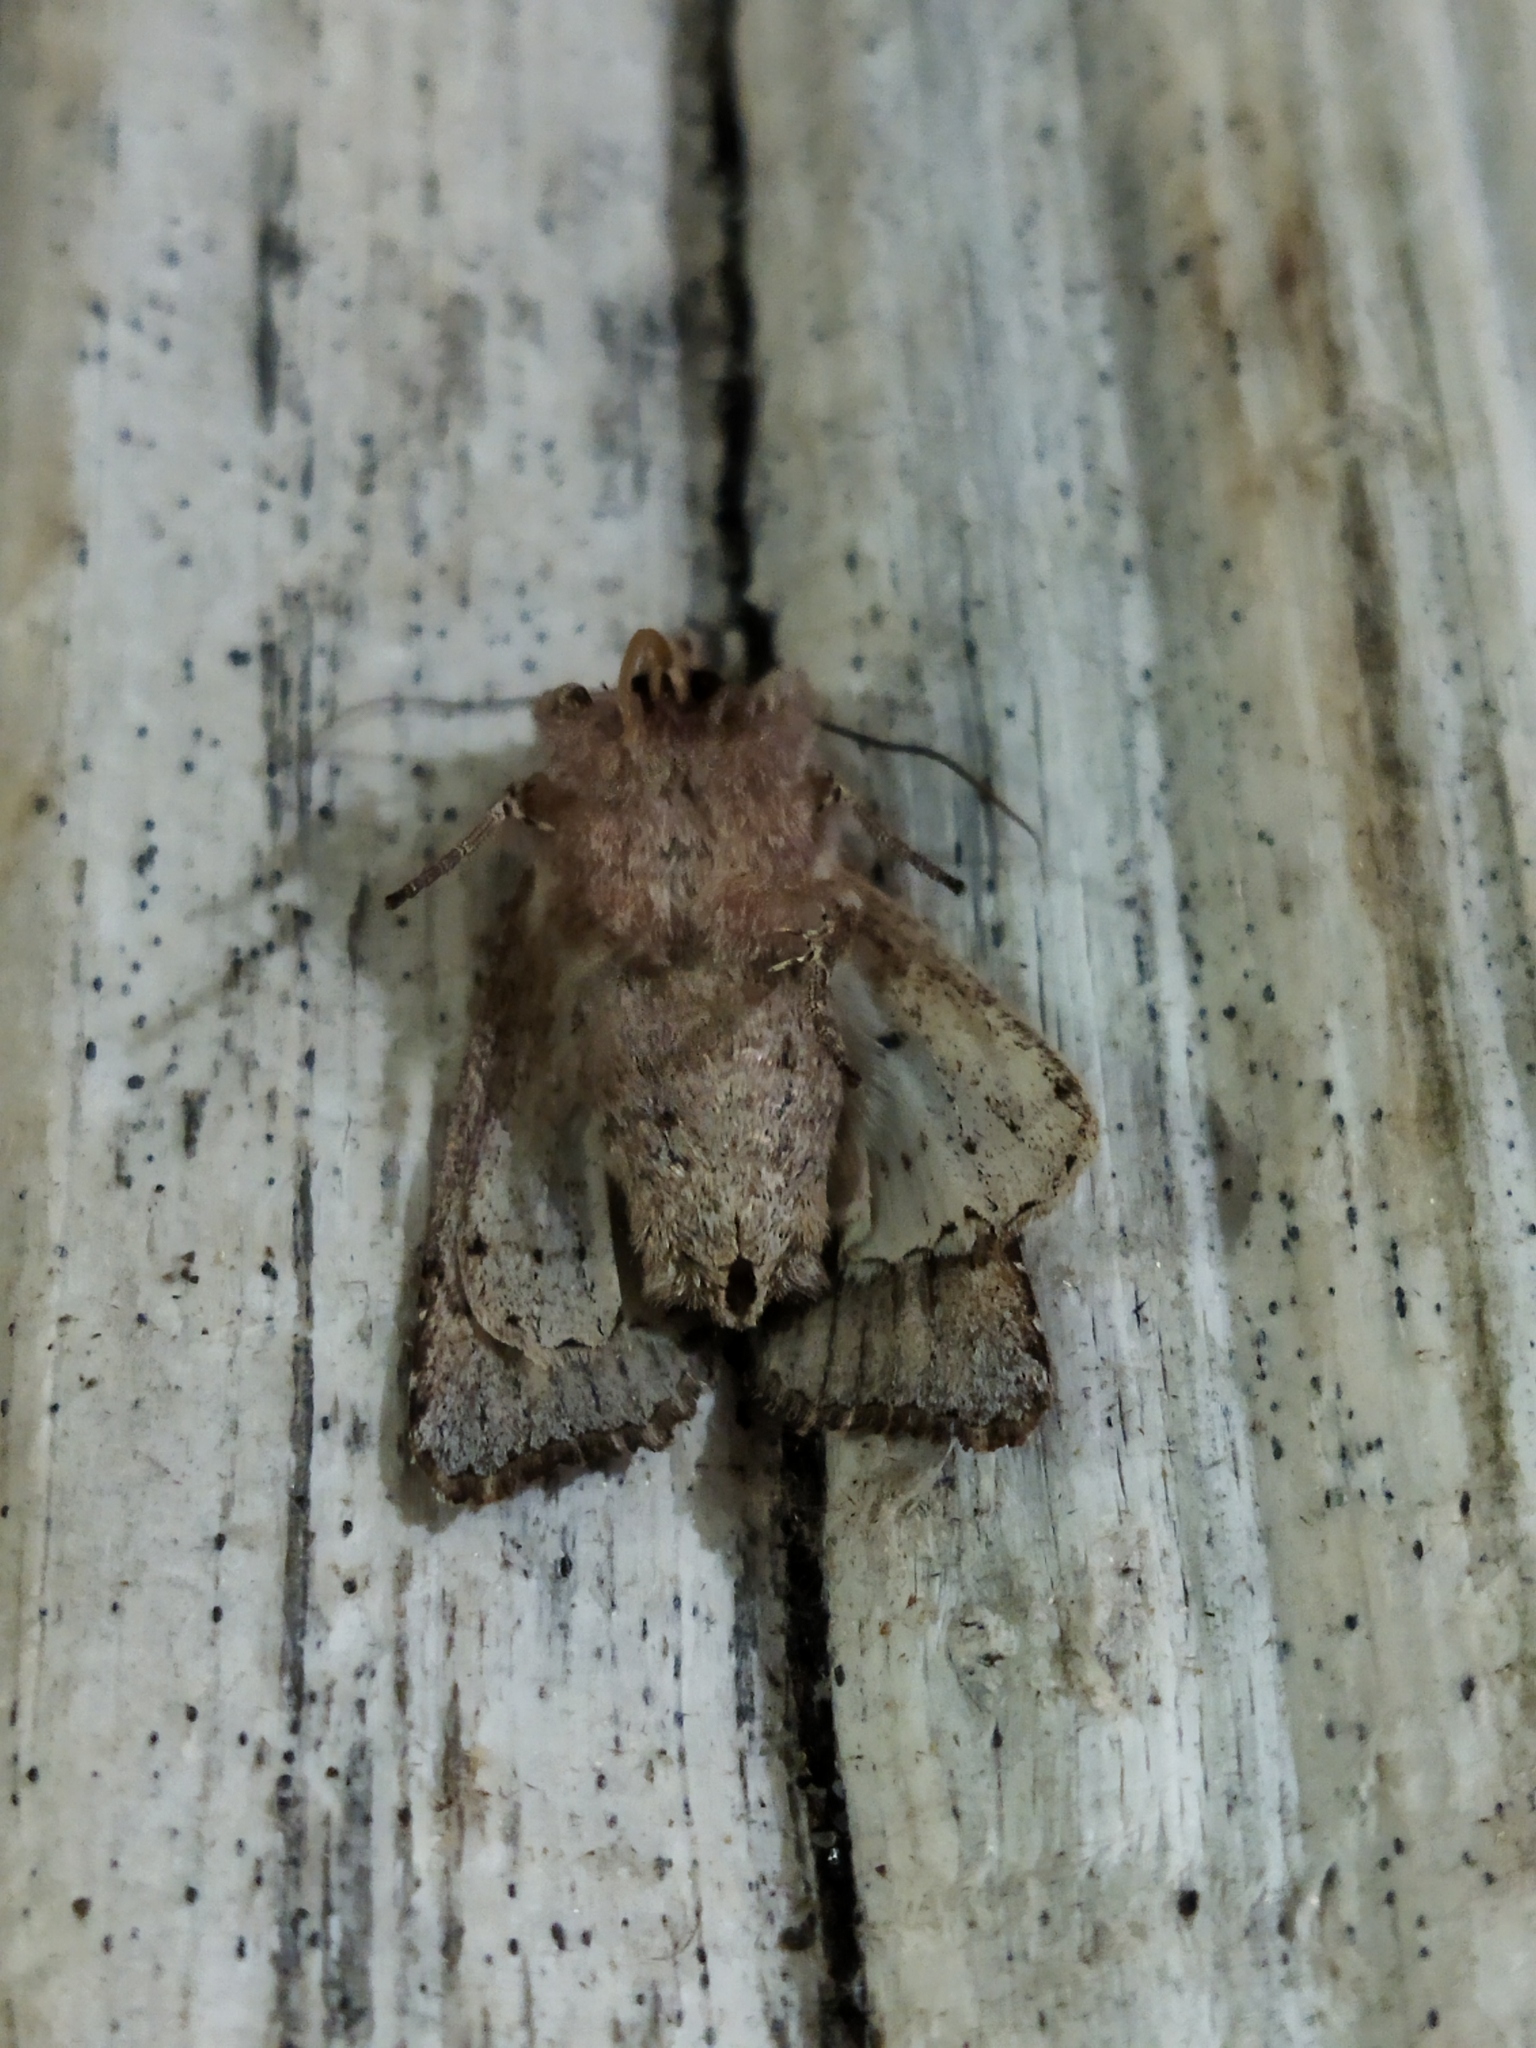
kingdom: Animalia
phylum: Arthropoda
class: Insecta
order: Lepidoptera
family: Noctuidae
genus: Egira
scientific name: Egira
